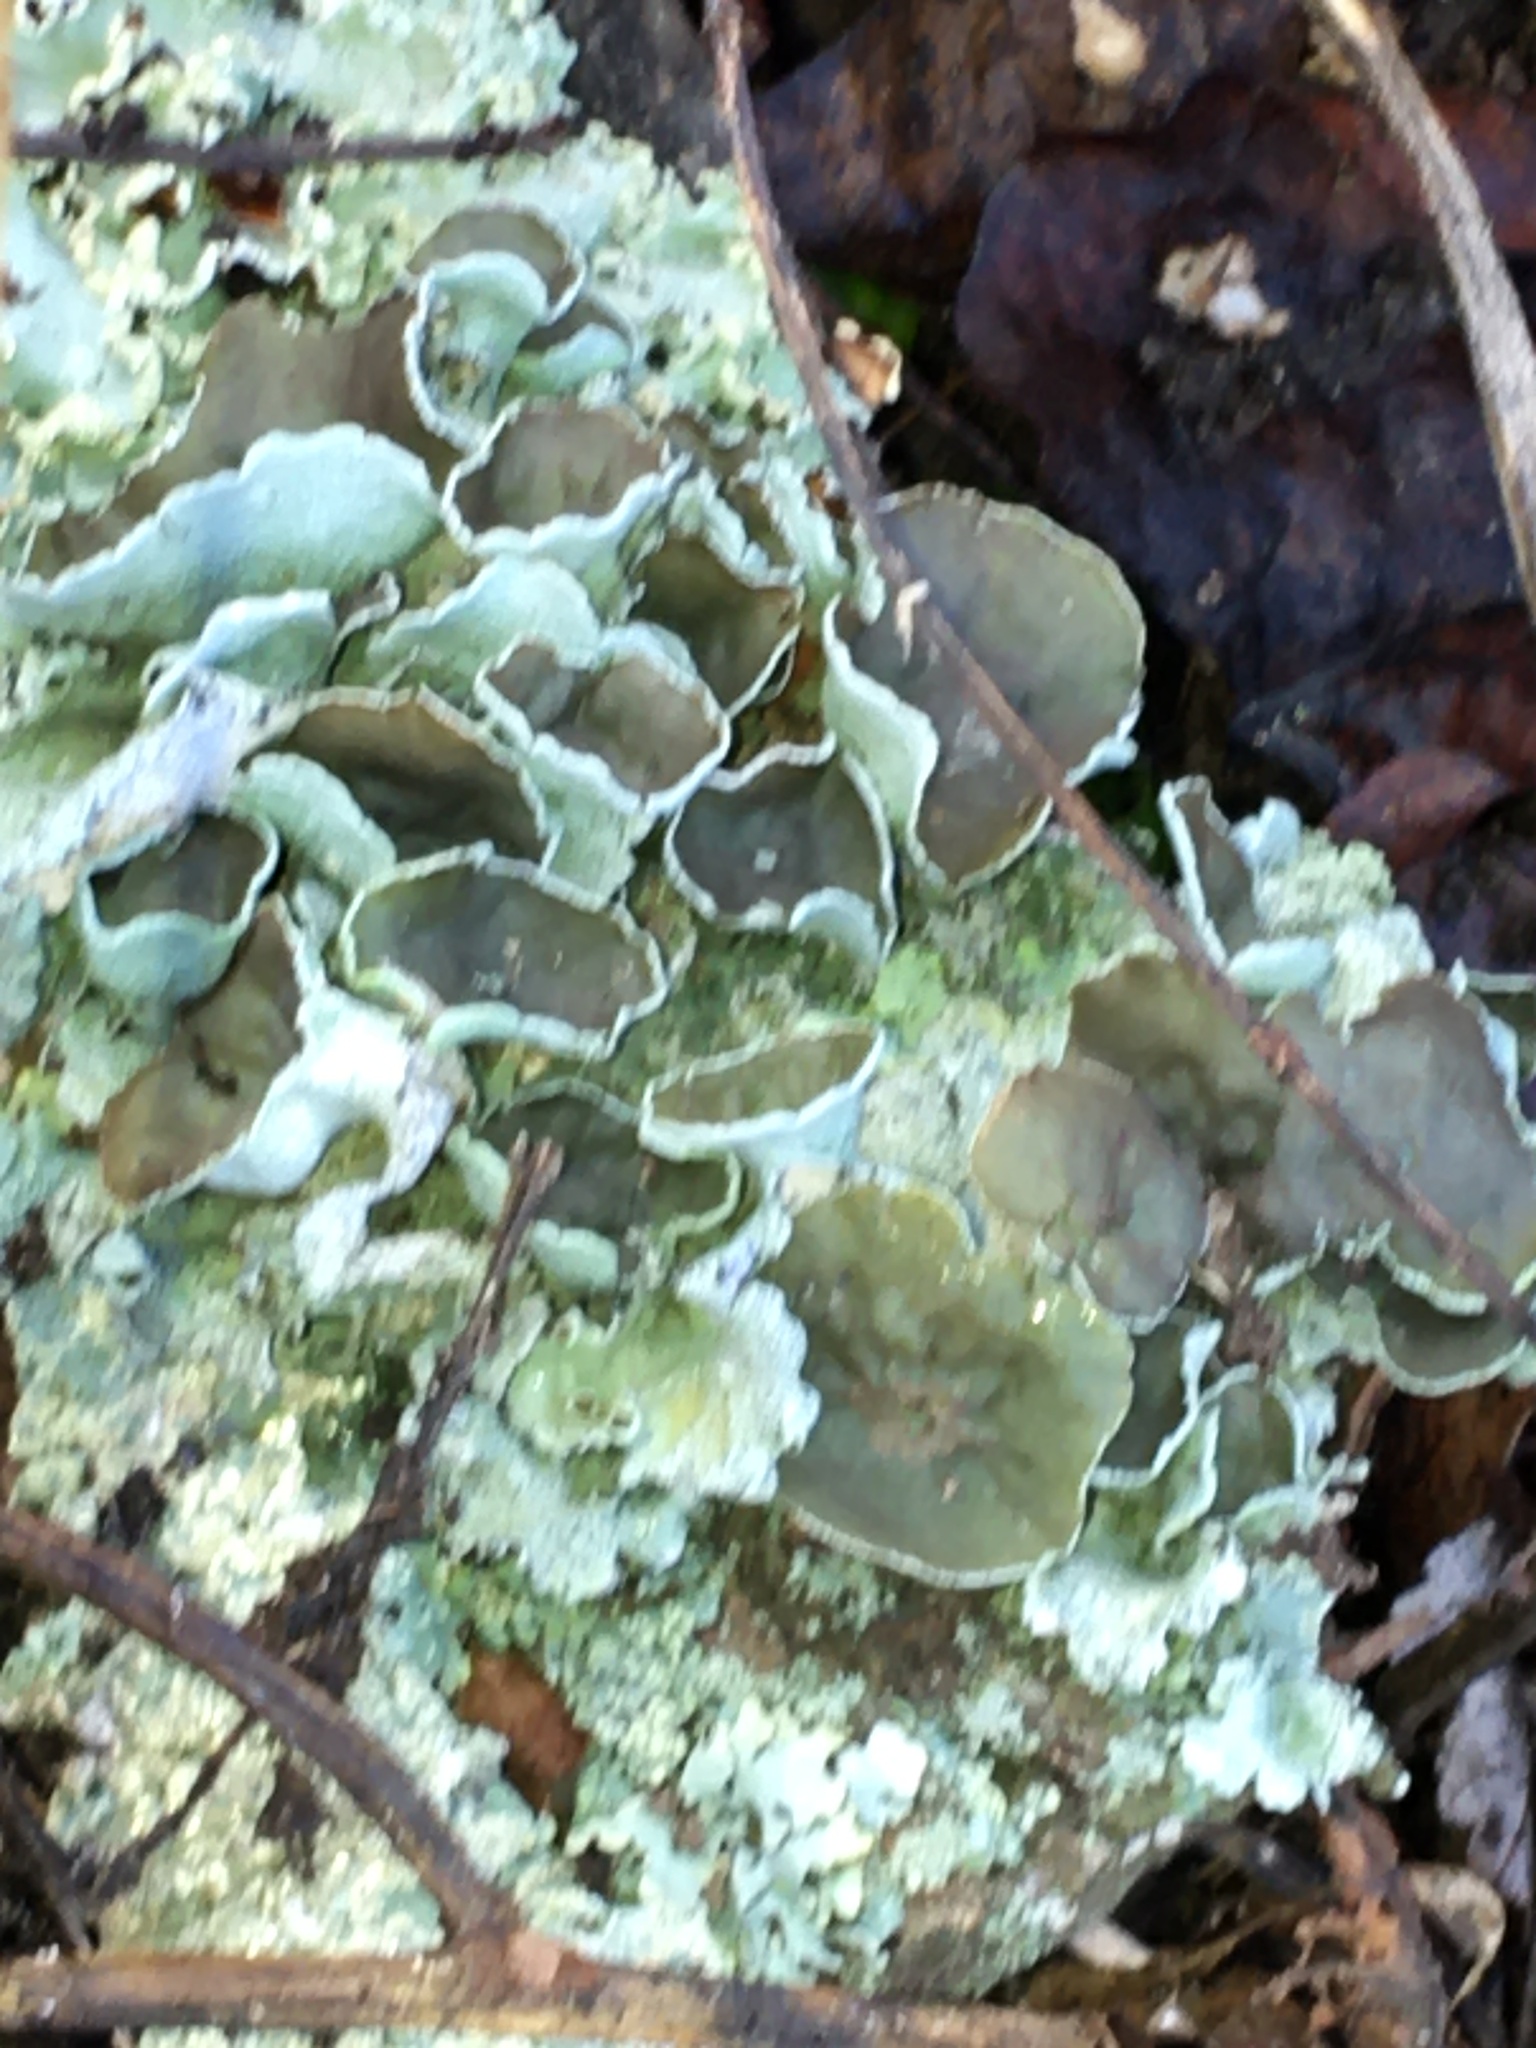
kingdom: Fungi
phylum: Ascomycota
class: Lecanoromycetes
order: Lecanorales
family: Parmeliaceae
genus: Parmotrema
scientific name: Parmotrema perforatum
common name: Perforated ruffle lichen
